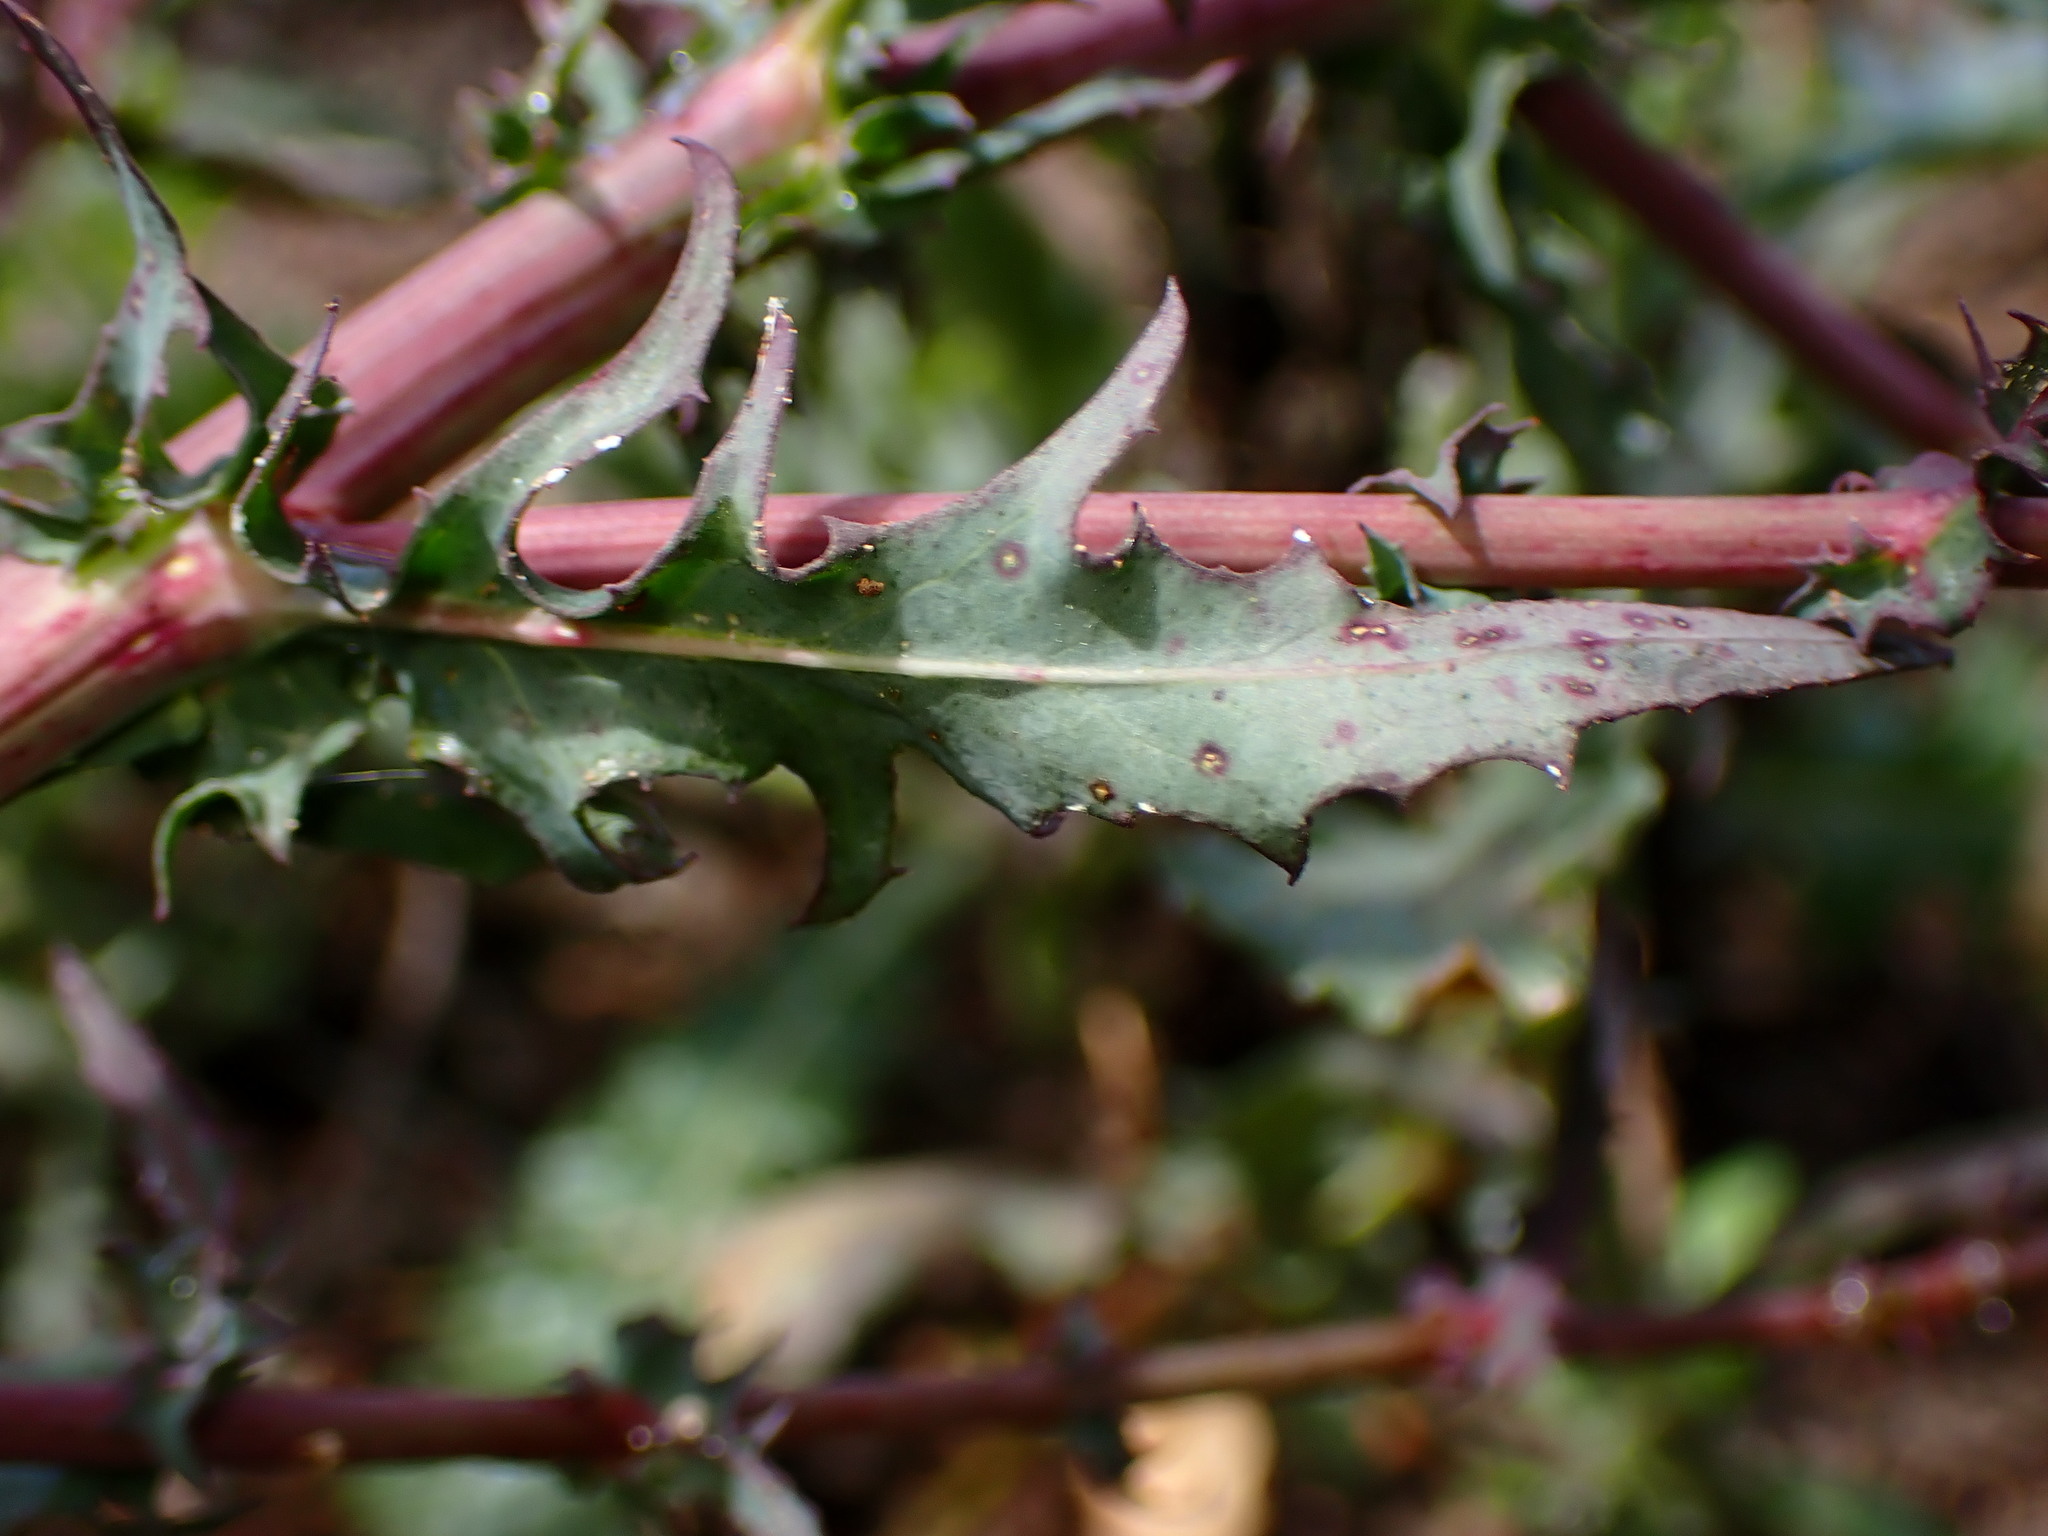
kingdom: Plantae
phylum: Tracheophyta
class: Magnoliopsida
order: Asterales
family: Asteraceae
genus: Rafinesquia
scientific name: Rafinesquia californica
